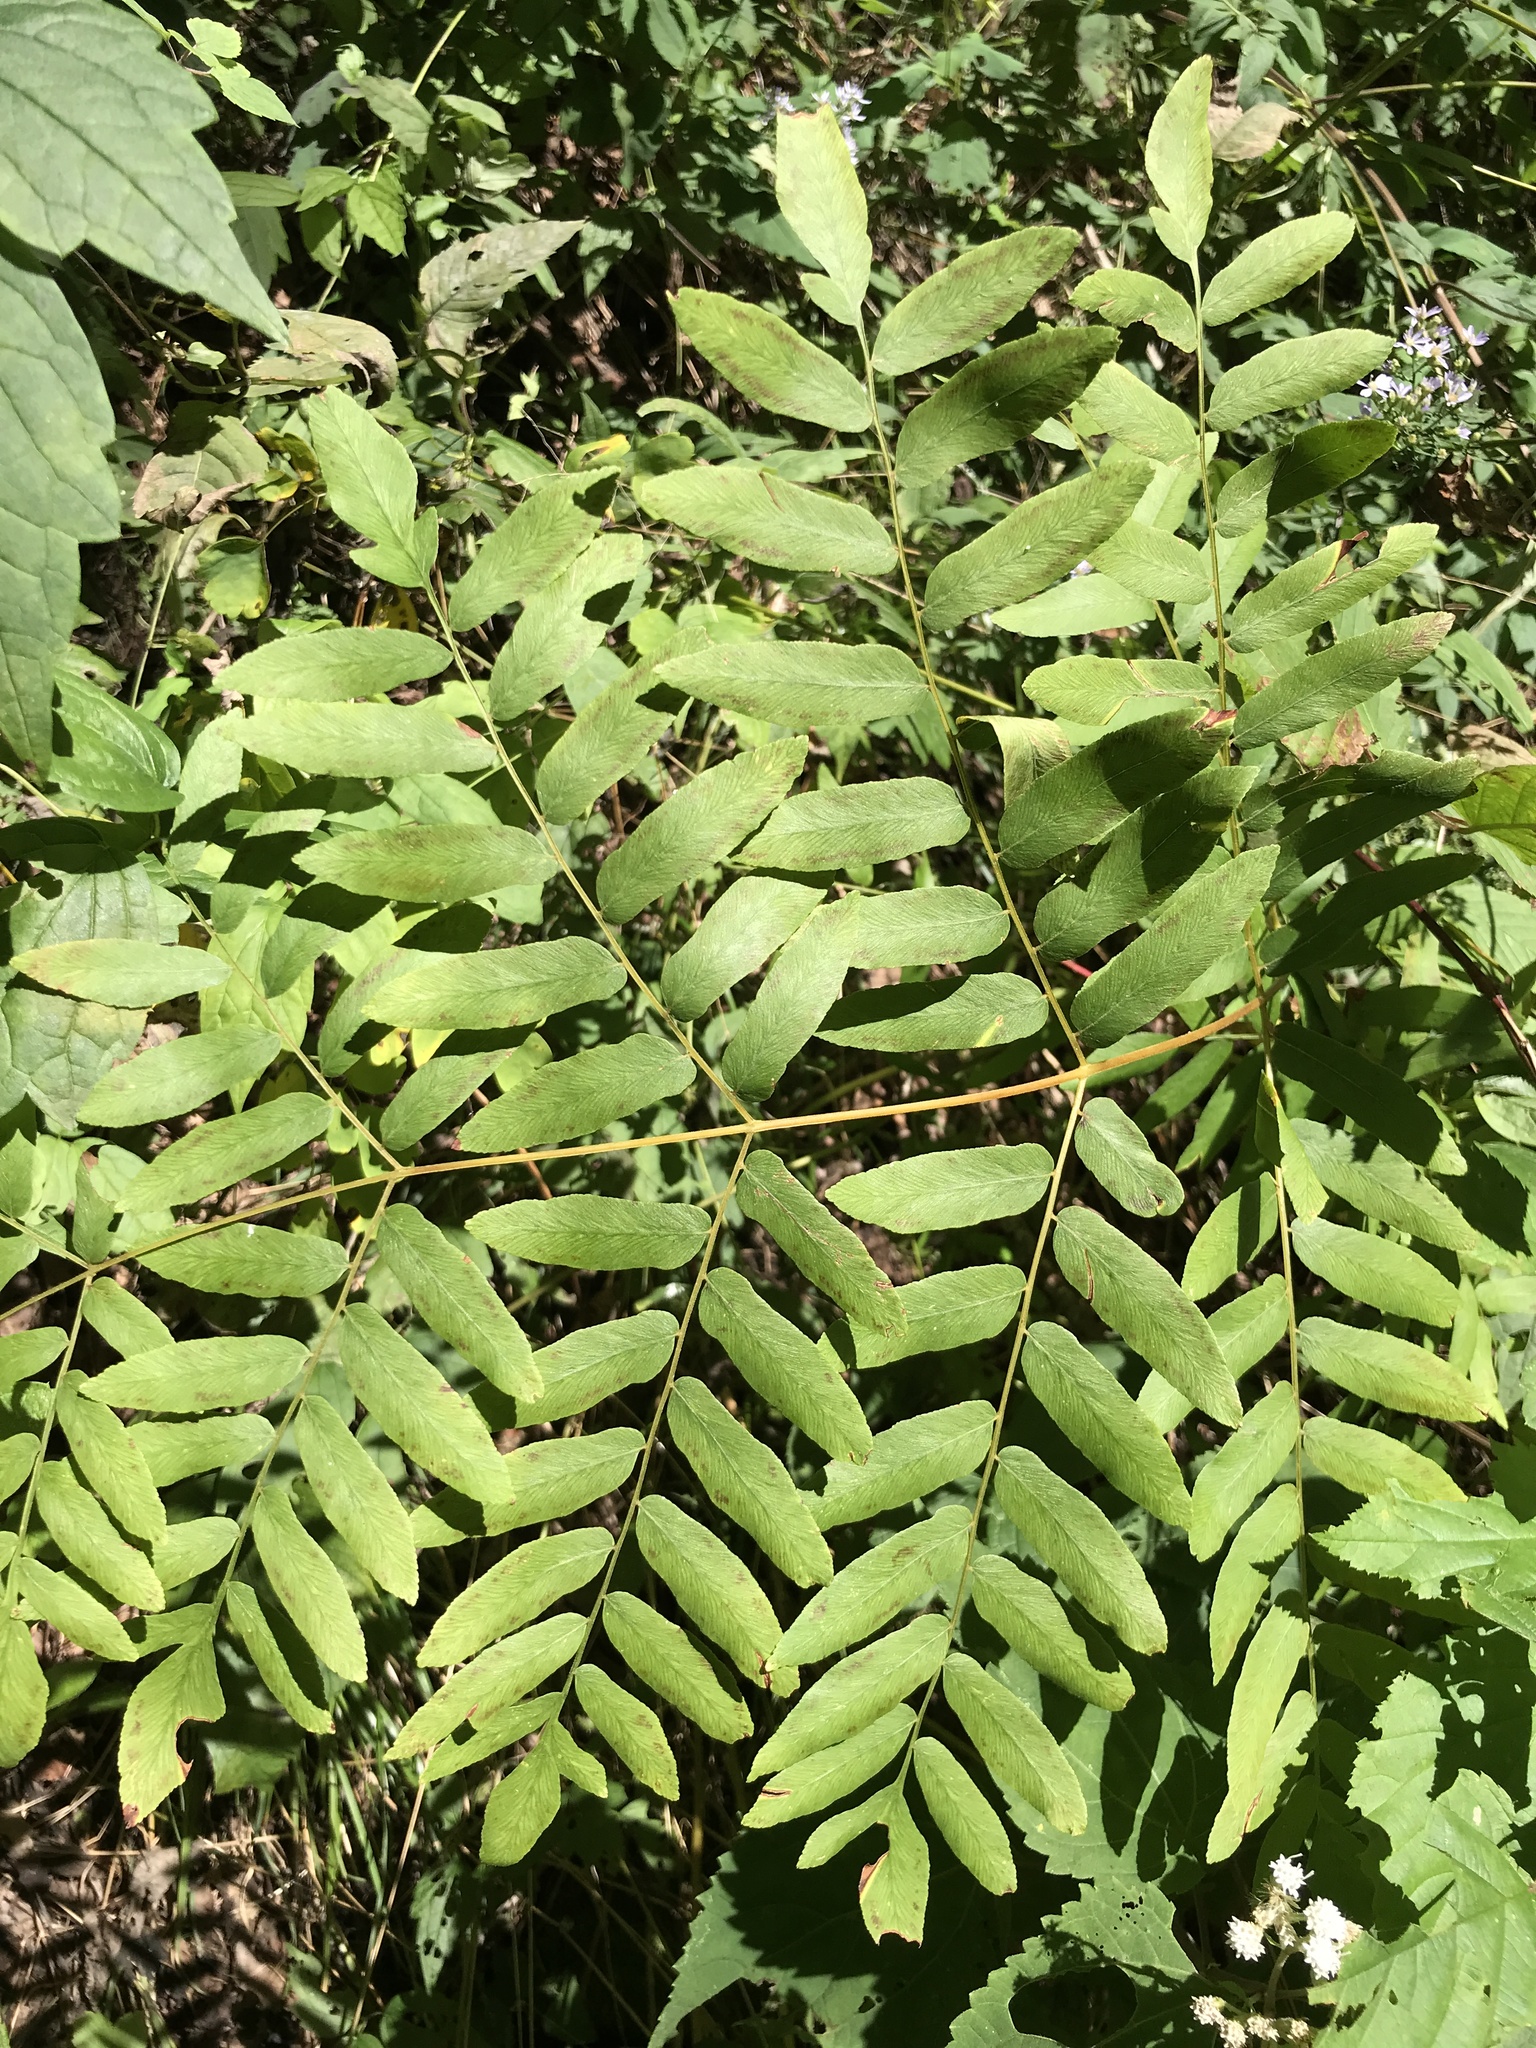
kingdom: Plantae
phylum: Tracheophyta
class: Polypodiopsida
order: Osmundales
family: Osmundaceae
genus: Osmunda
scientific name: Osmunda spectabilis
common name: American royal fern
